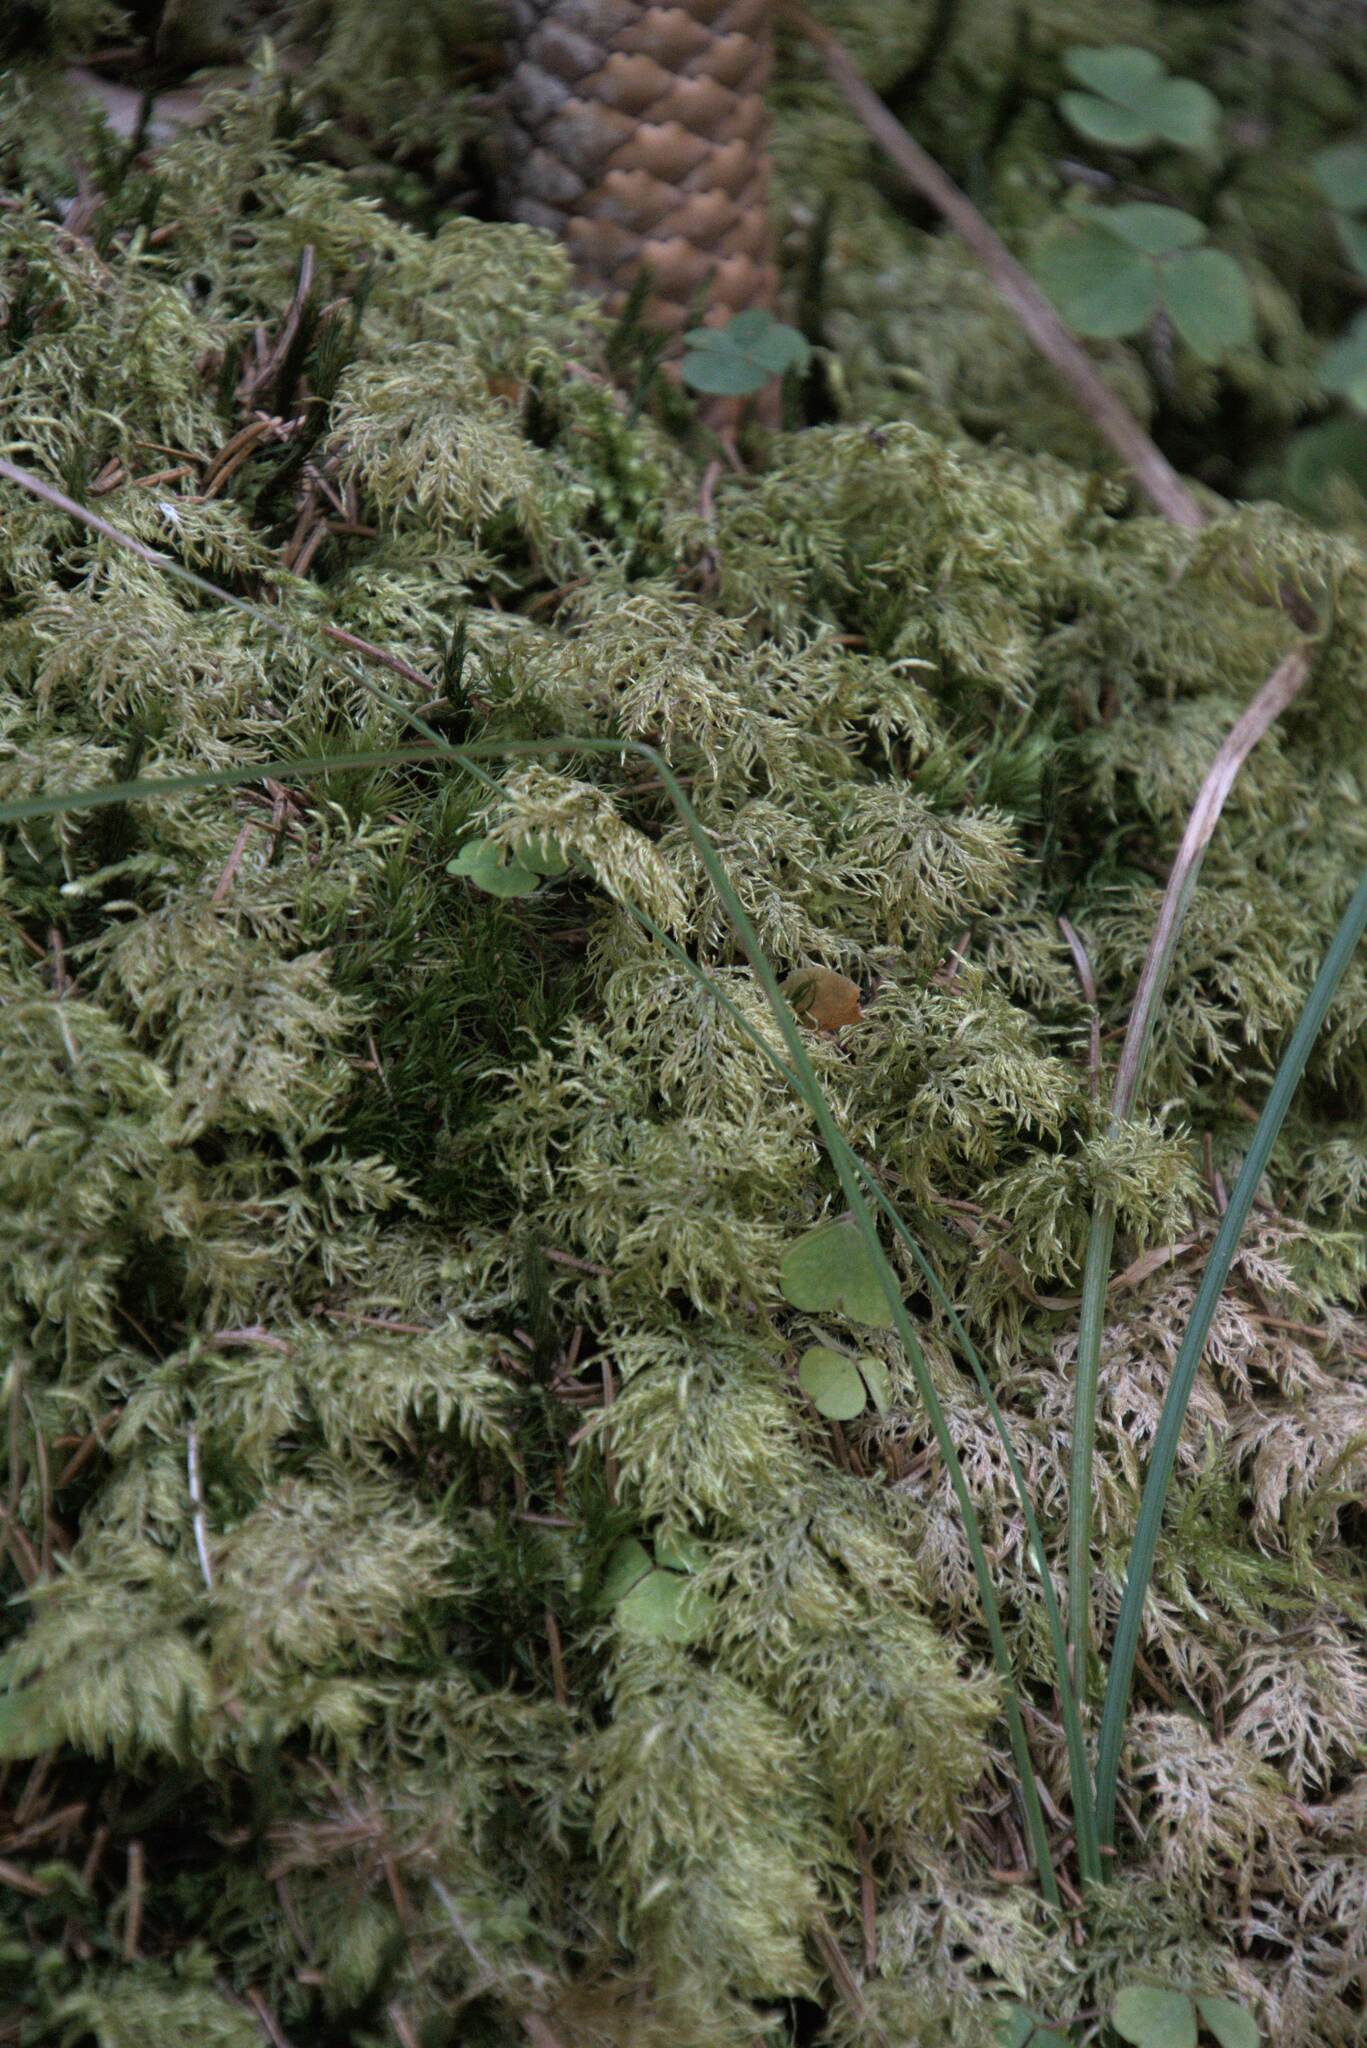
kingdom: Plantae
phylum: Bryophyta
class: Bryopsida
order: Hypnales
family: Hylocomiaceae
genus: Hylocomium
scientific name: Hylocomium splendens
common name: Stairstep moss
